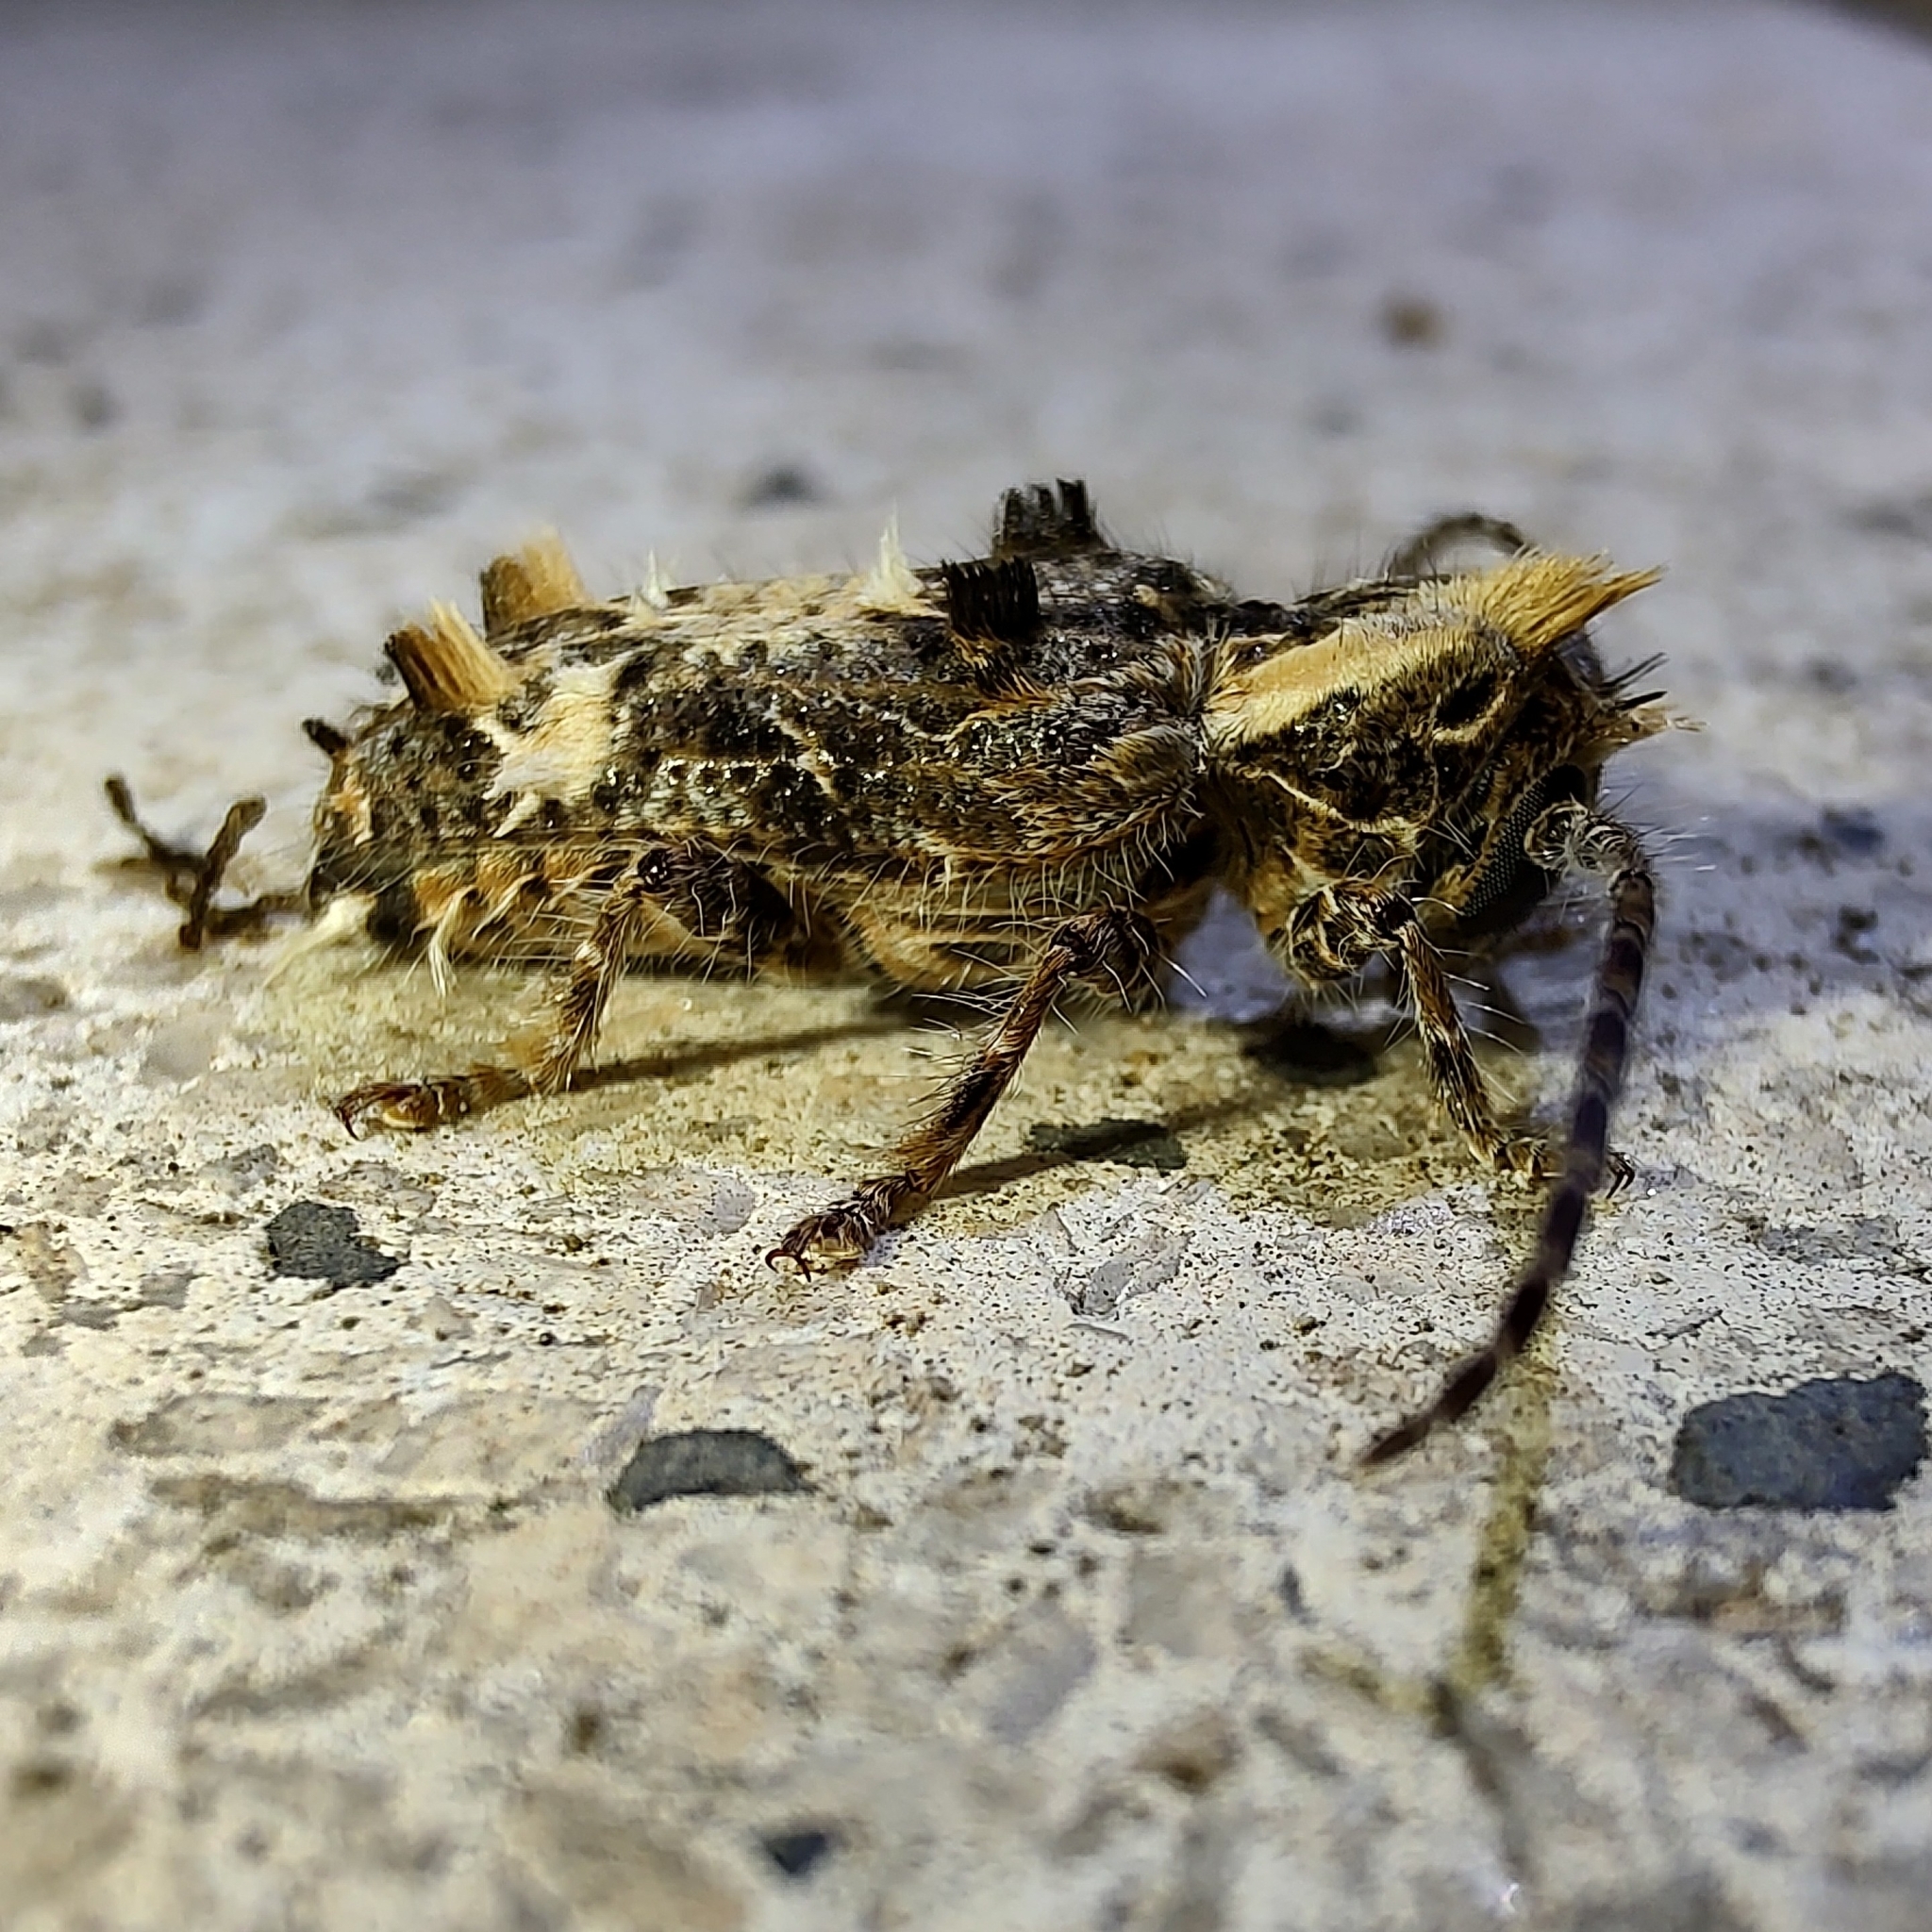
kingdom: Animalia
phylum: Arthropoda
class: Insecta
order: Coleoptera
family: Cerambycidae
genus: Desmiphora
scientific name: Desmiphora hirticollis
